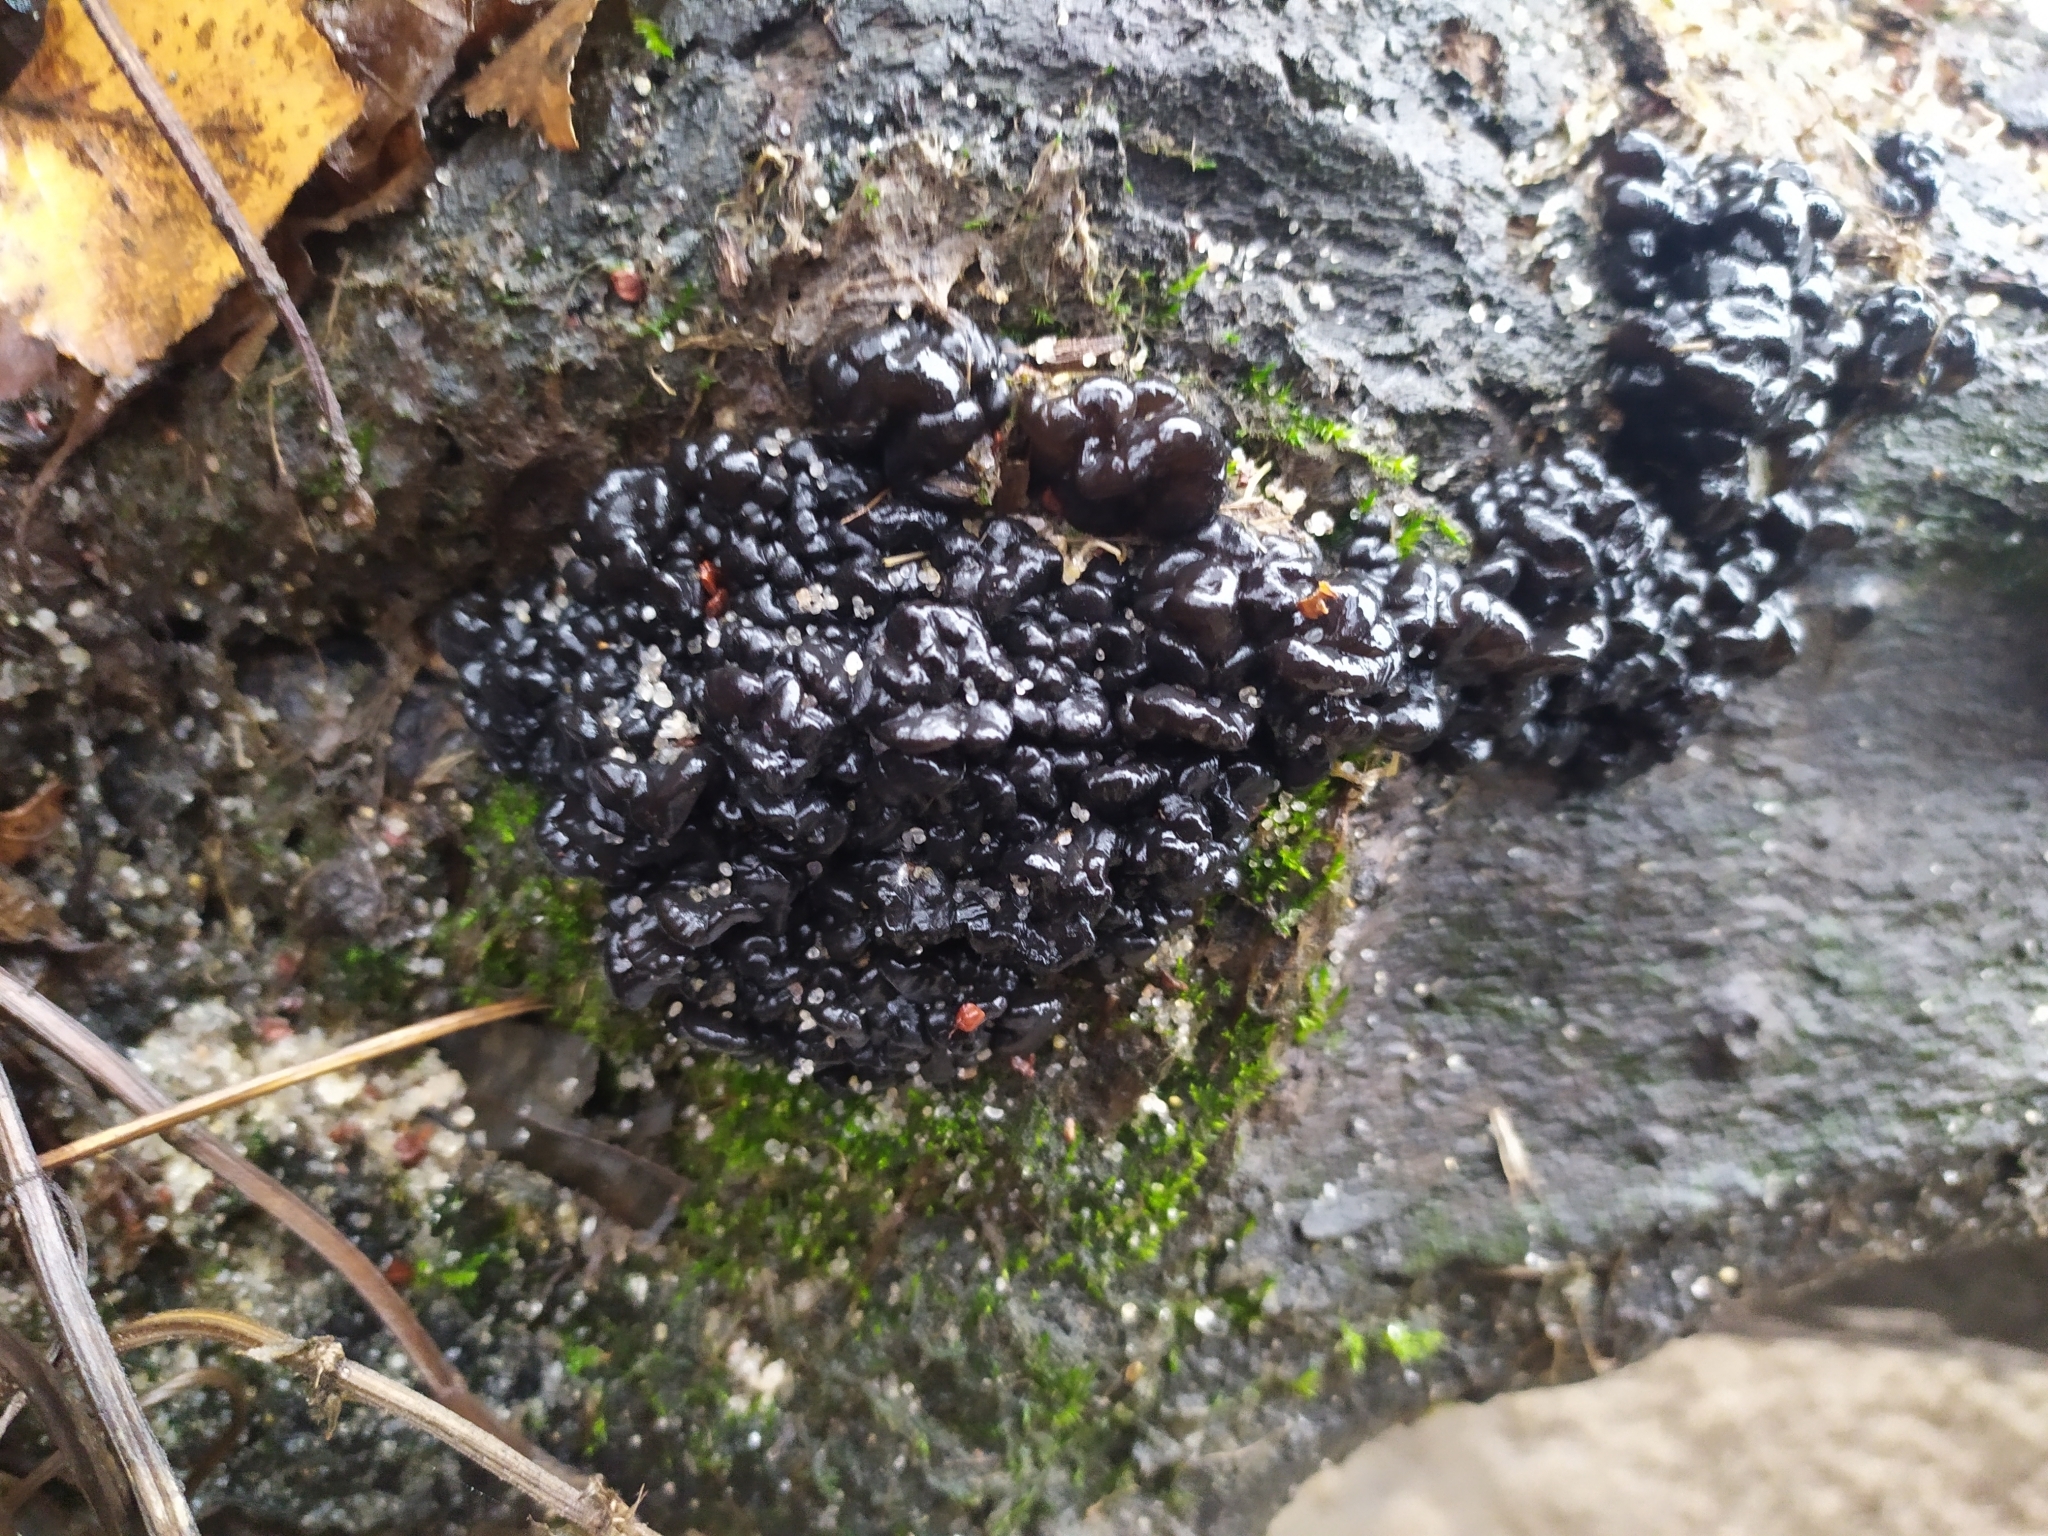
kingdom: Fungi
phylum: Basidiomycota
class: Agaricomycetes
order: Auriculariales
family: Auriculariaceae
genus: Exidia
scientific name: Exidia glandulosa
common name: Witches' butter
